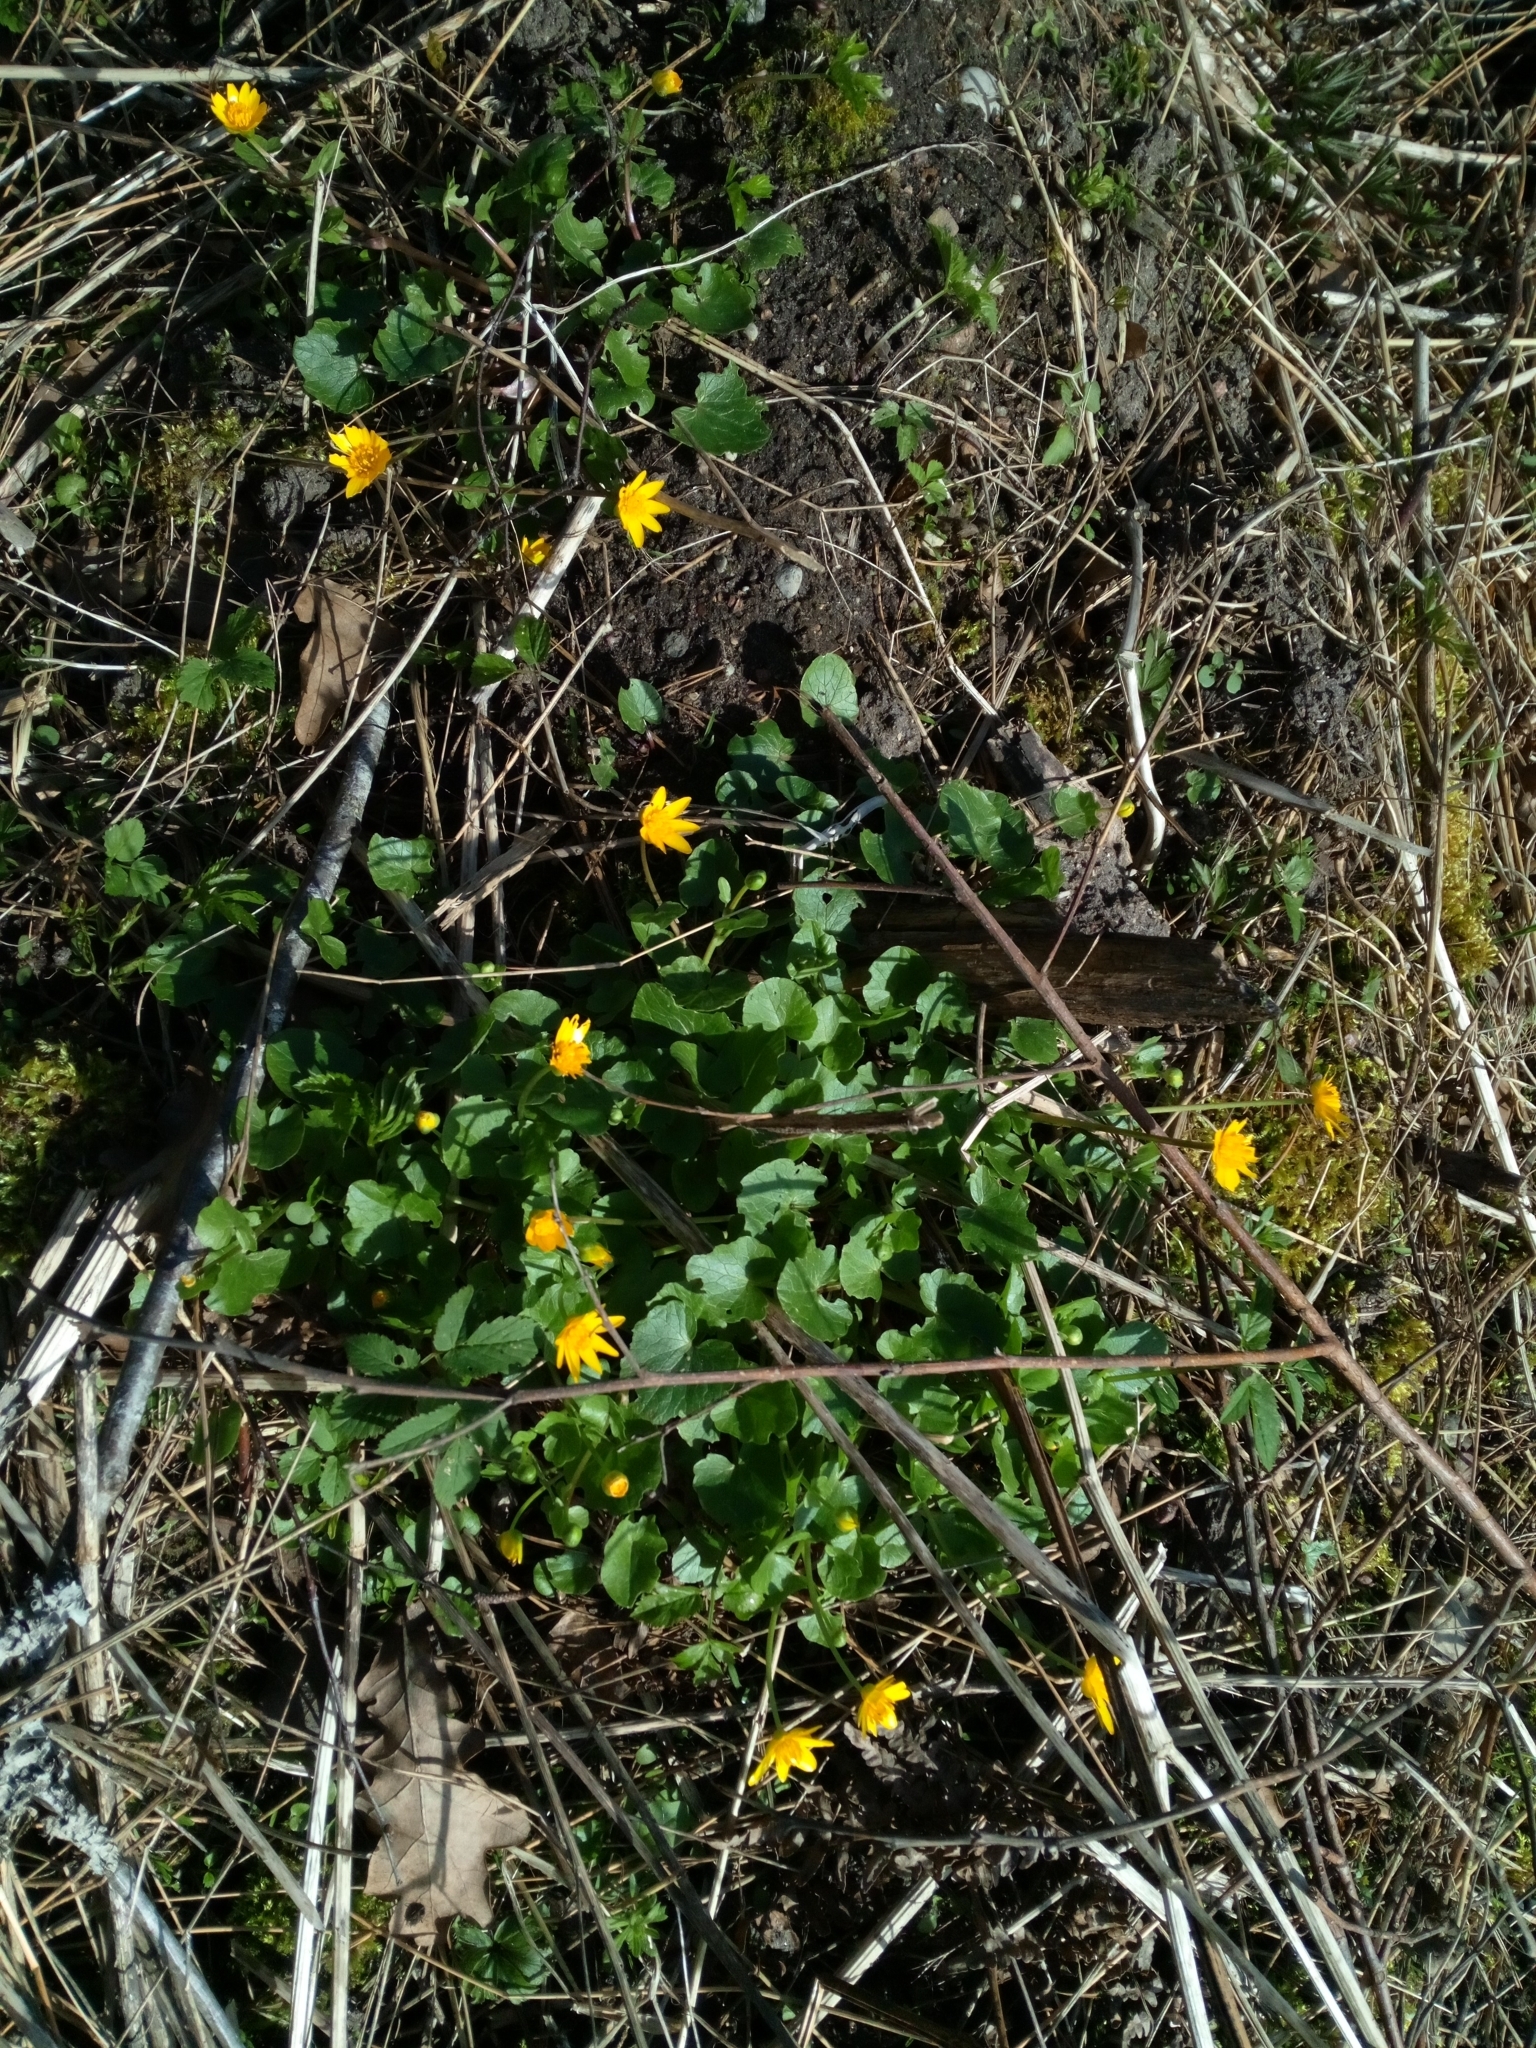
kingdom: Plantae
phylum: Tracheophyta
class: Magnoliopsida
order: Ranunculales
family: Ranunculaceae
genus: Ficaria
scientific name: Ficaria verna
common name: Lesser celandine
